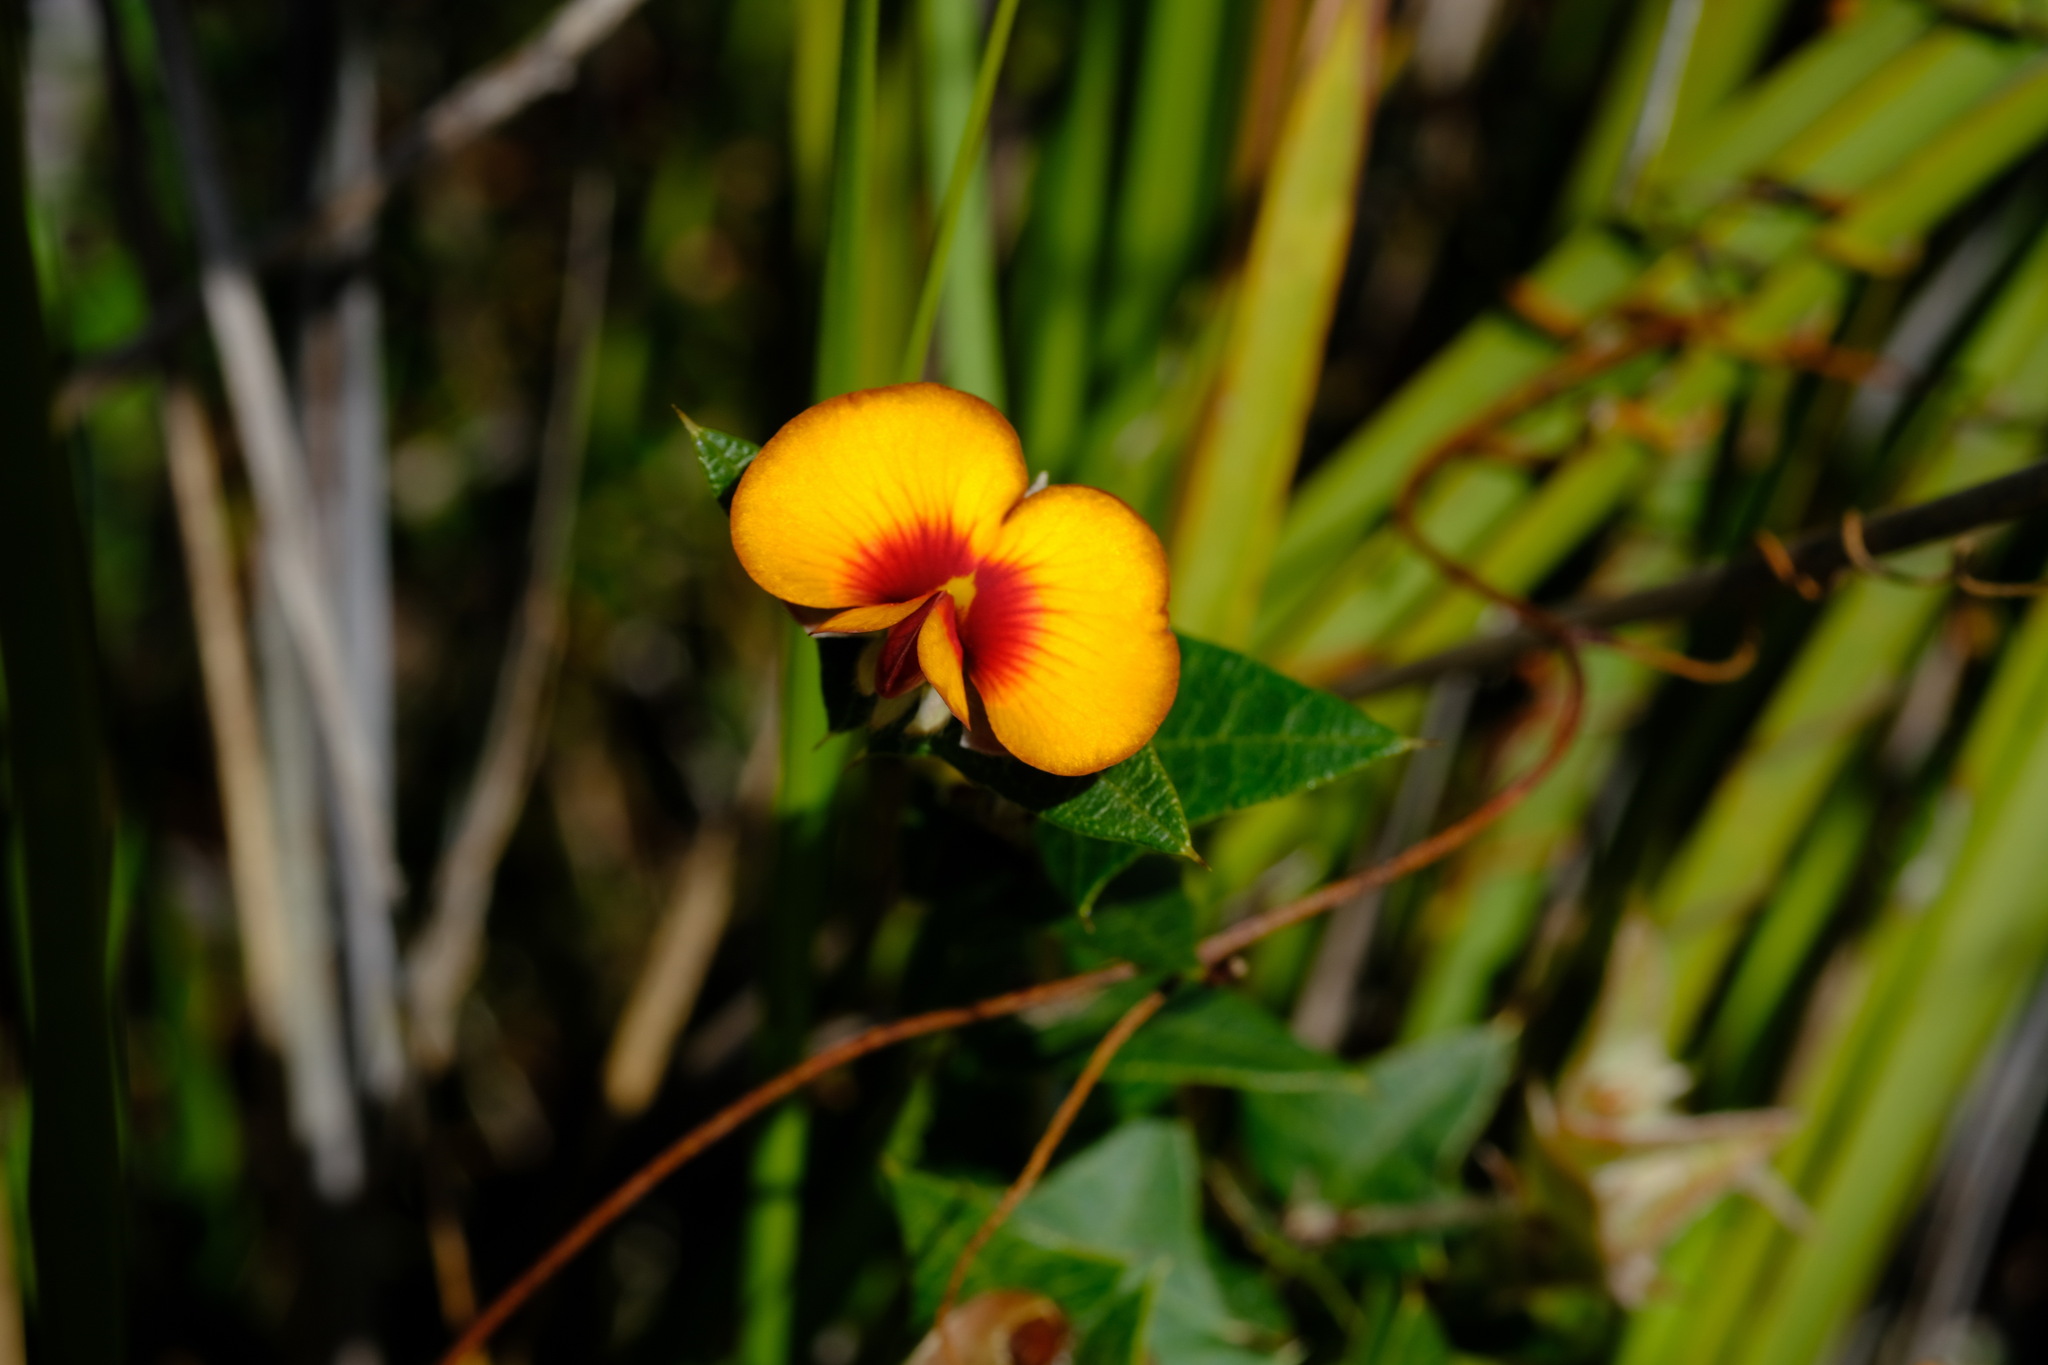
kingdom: Plantae
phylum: Tracheophyta
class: Magnoliopsida
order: Fabales
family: Fabaceae
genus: Platylobium
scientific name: Platylobium obtusangulum
